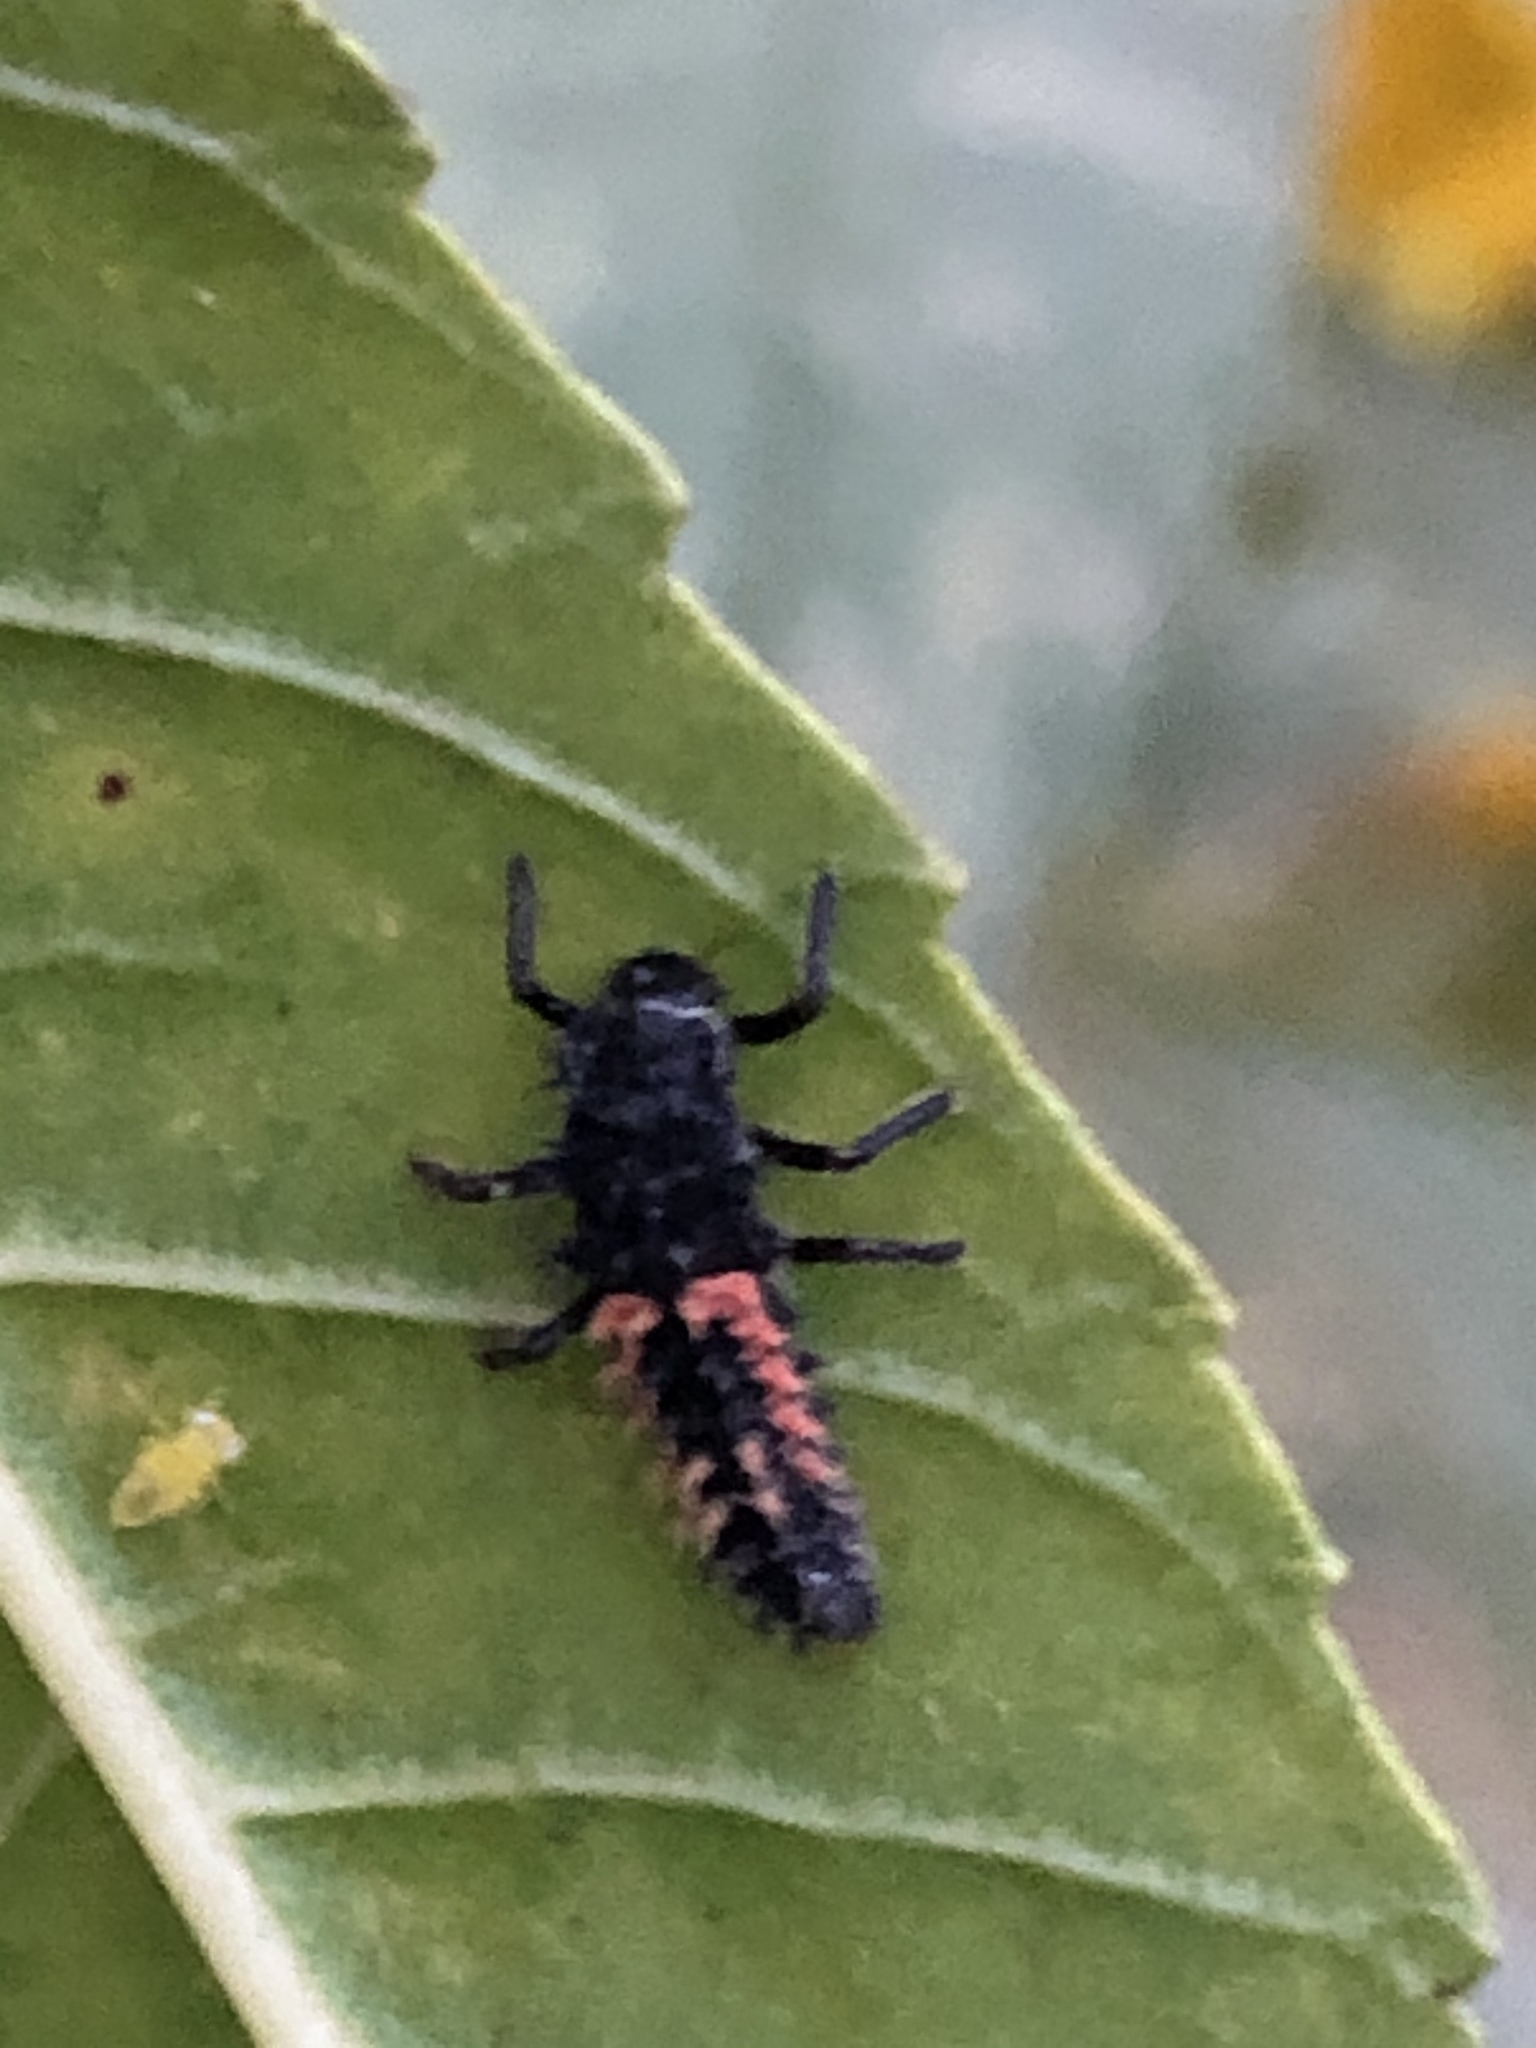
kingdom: Animalia
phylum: Arthropoda
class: Insecta
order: Coleoptera
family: Coccinellidae
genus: Harmonia
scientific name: Harmonia axyridis
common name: Harlequin ladybird
